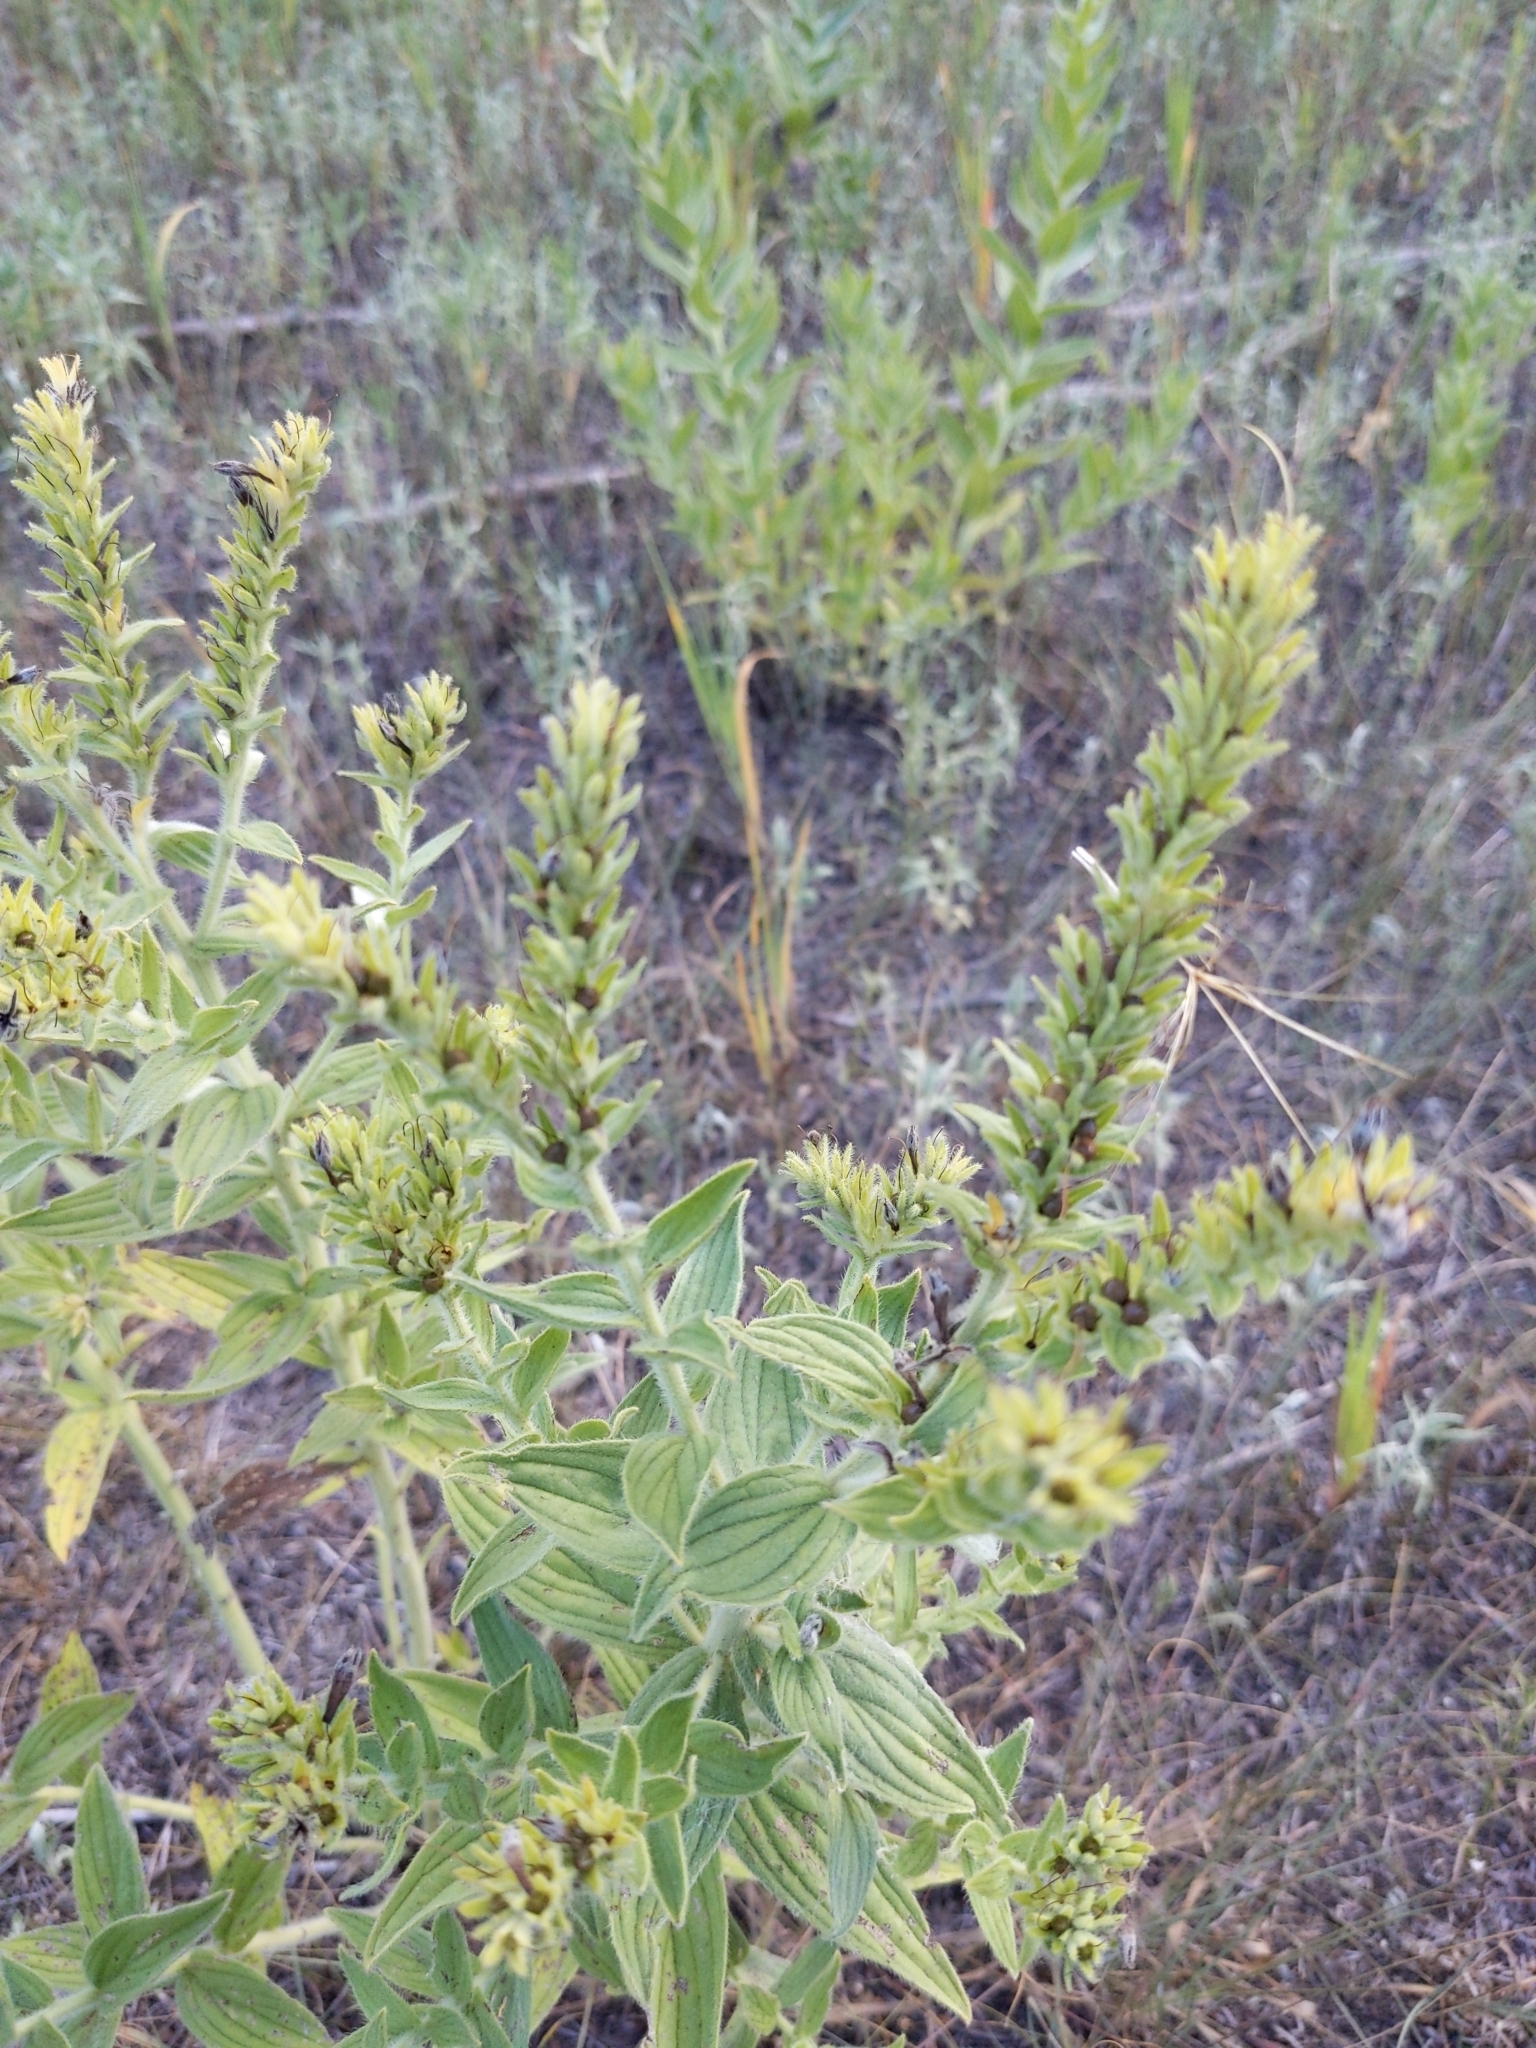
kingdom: Plantae
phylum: Tracheophyta
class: Magnoliopsida
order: Boraginales
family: Boraginaceae
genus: Lithospermum
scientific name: Lithospermum occidentale
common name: Western false gromwell
